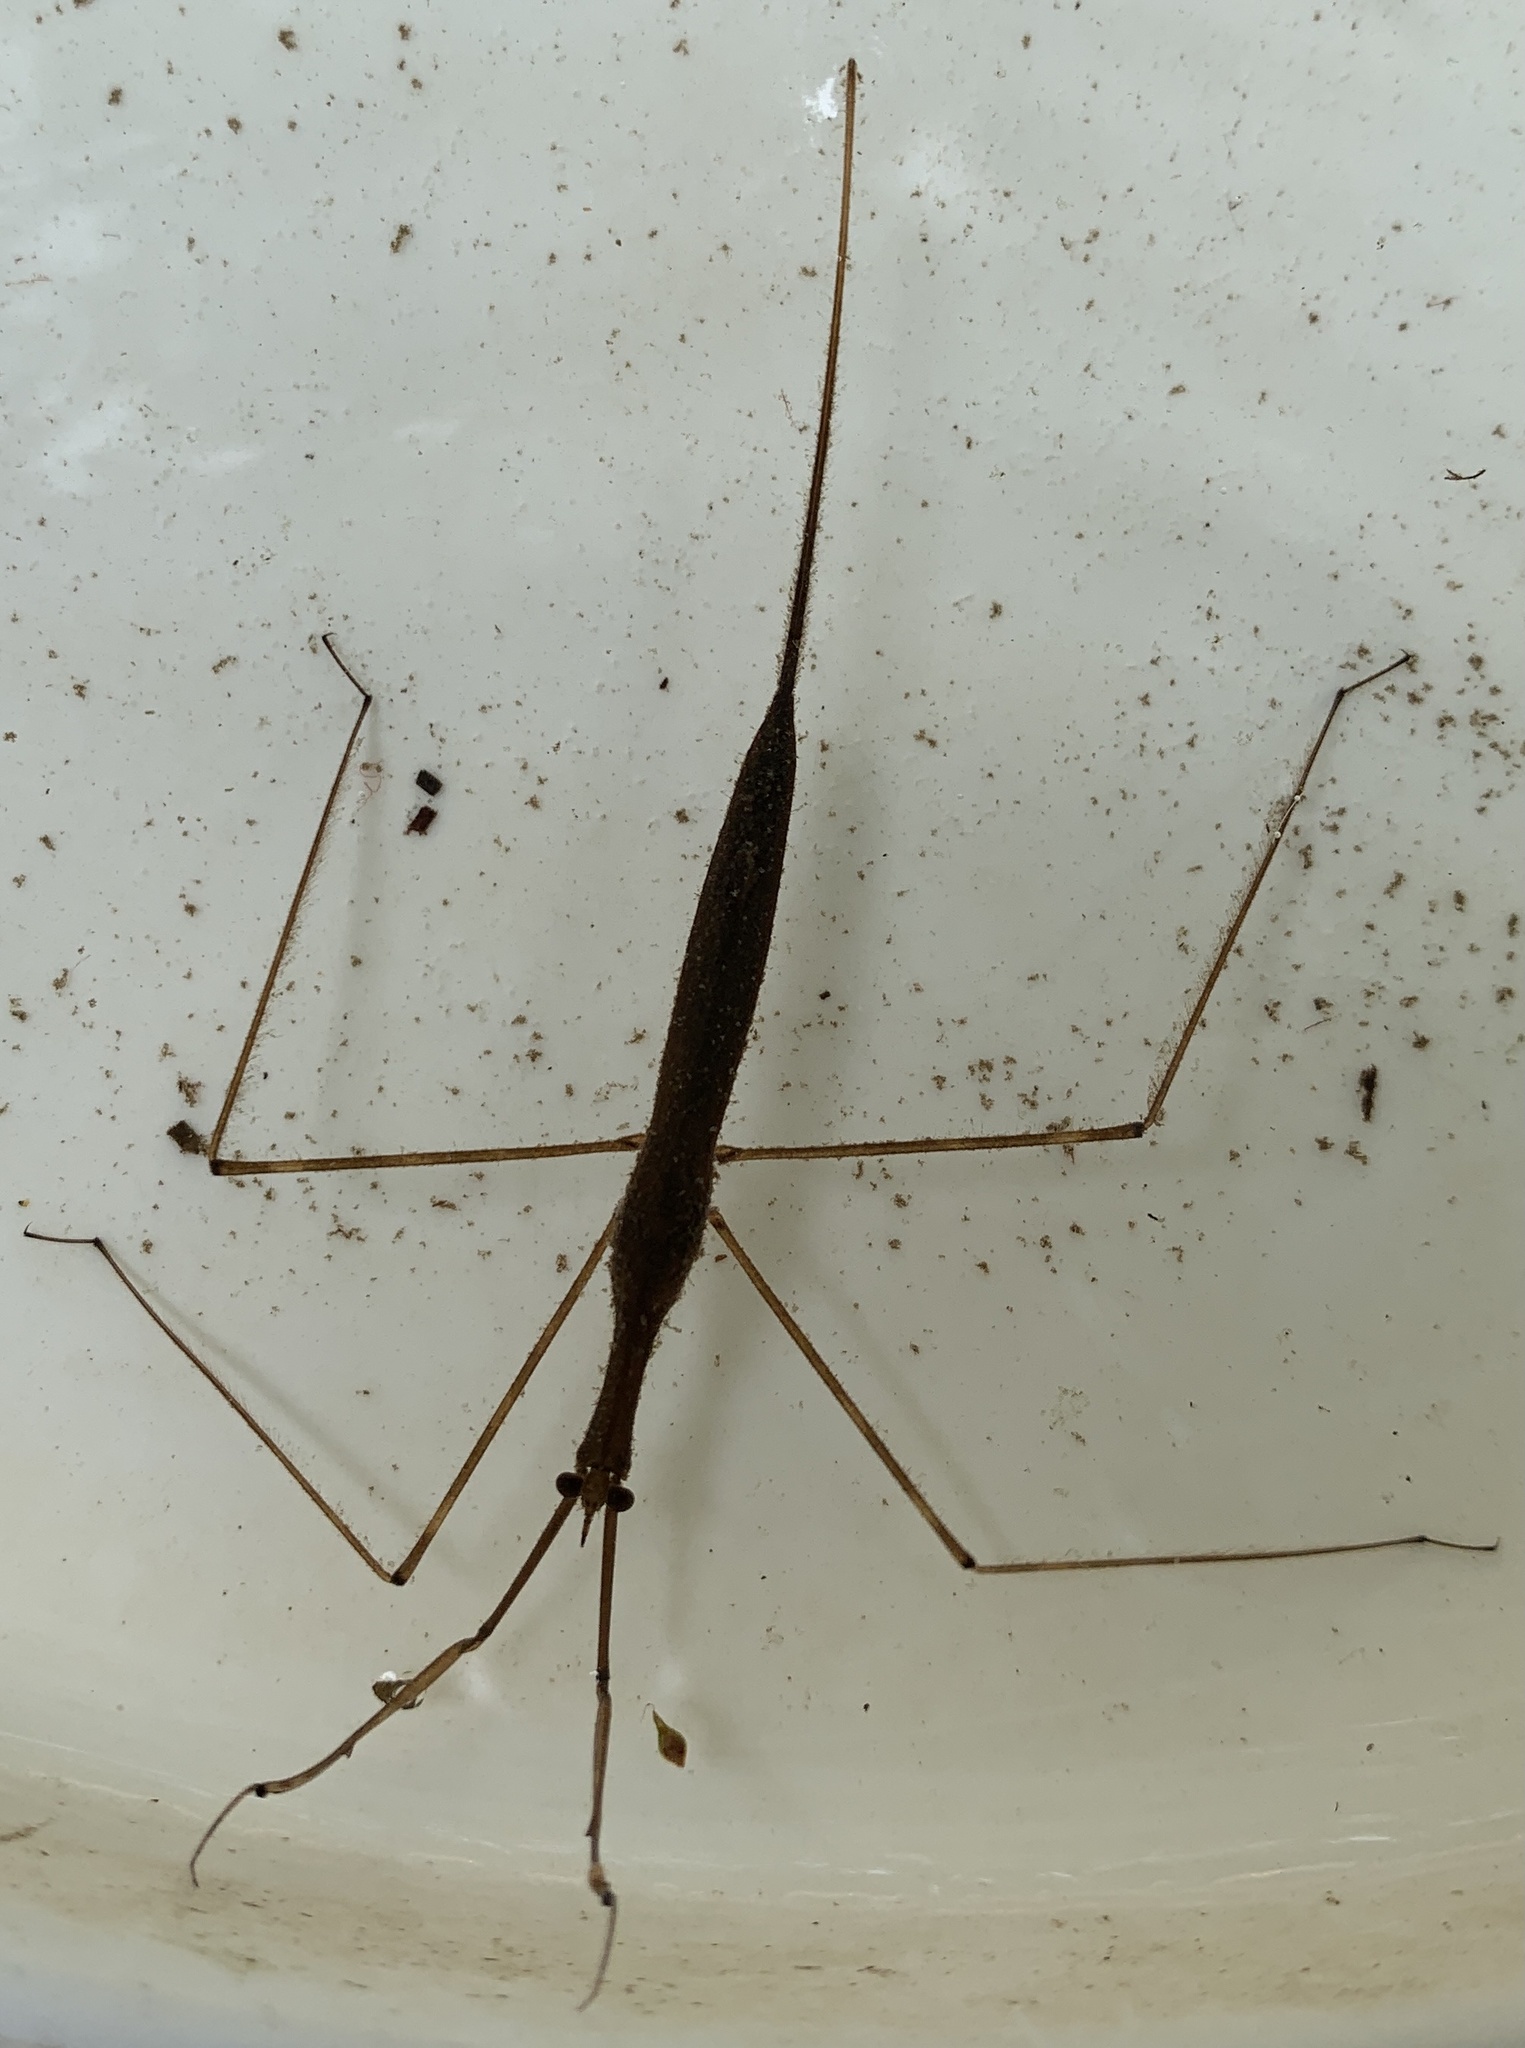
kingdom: Animalia
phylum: Arthropoda
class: Insecta
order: Hemiptera
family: Nepidae
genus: Ranatra
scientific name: Ranatra
